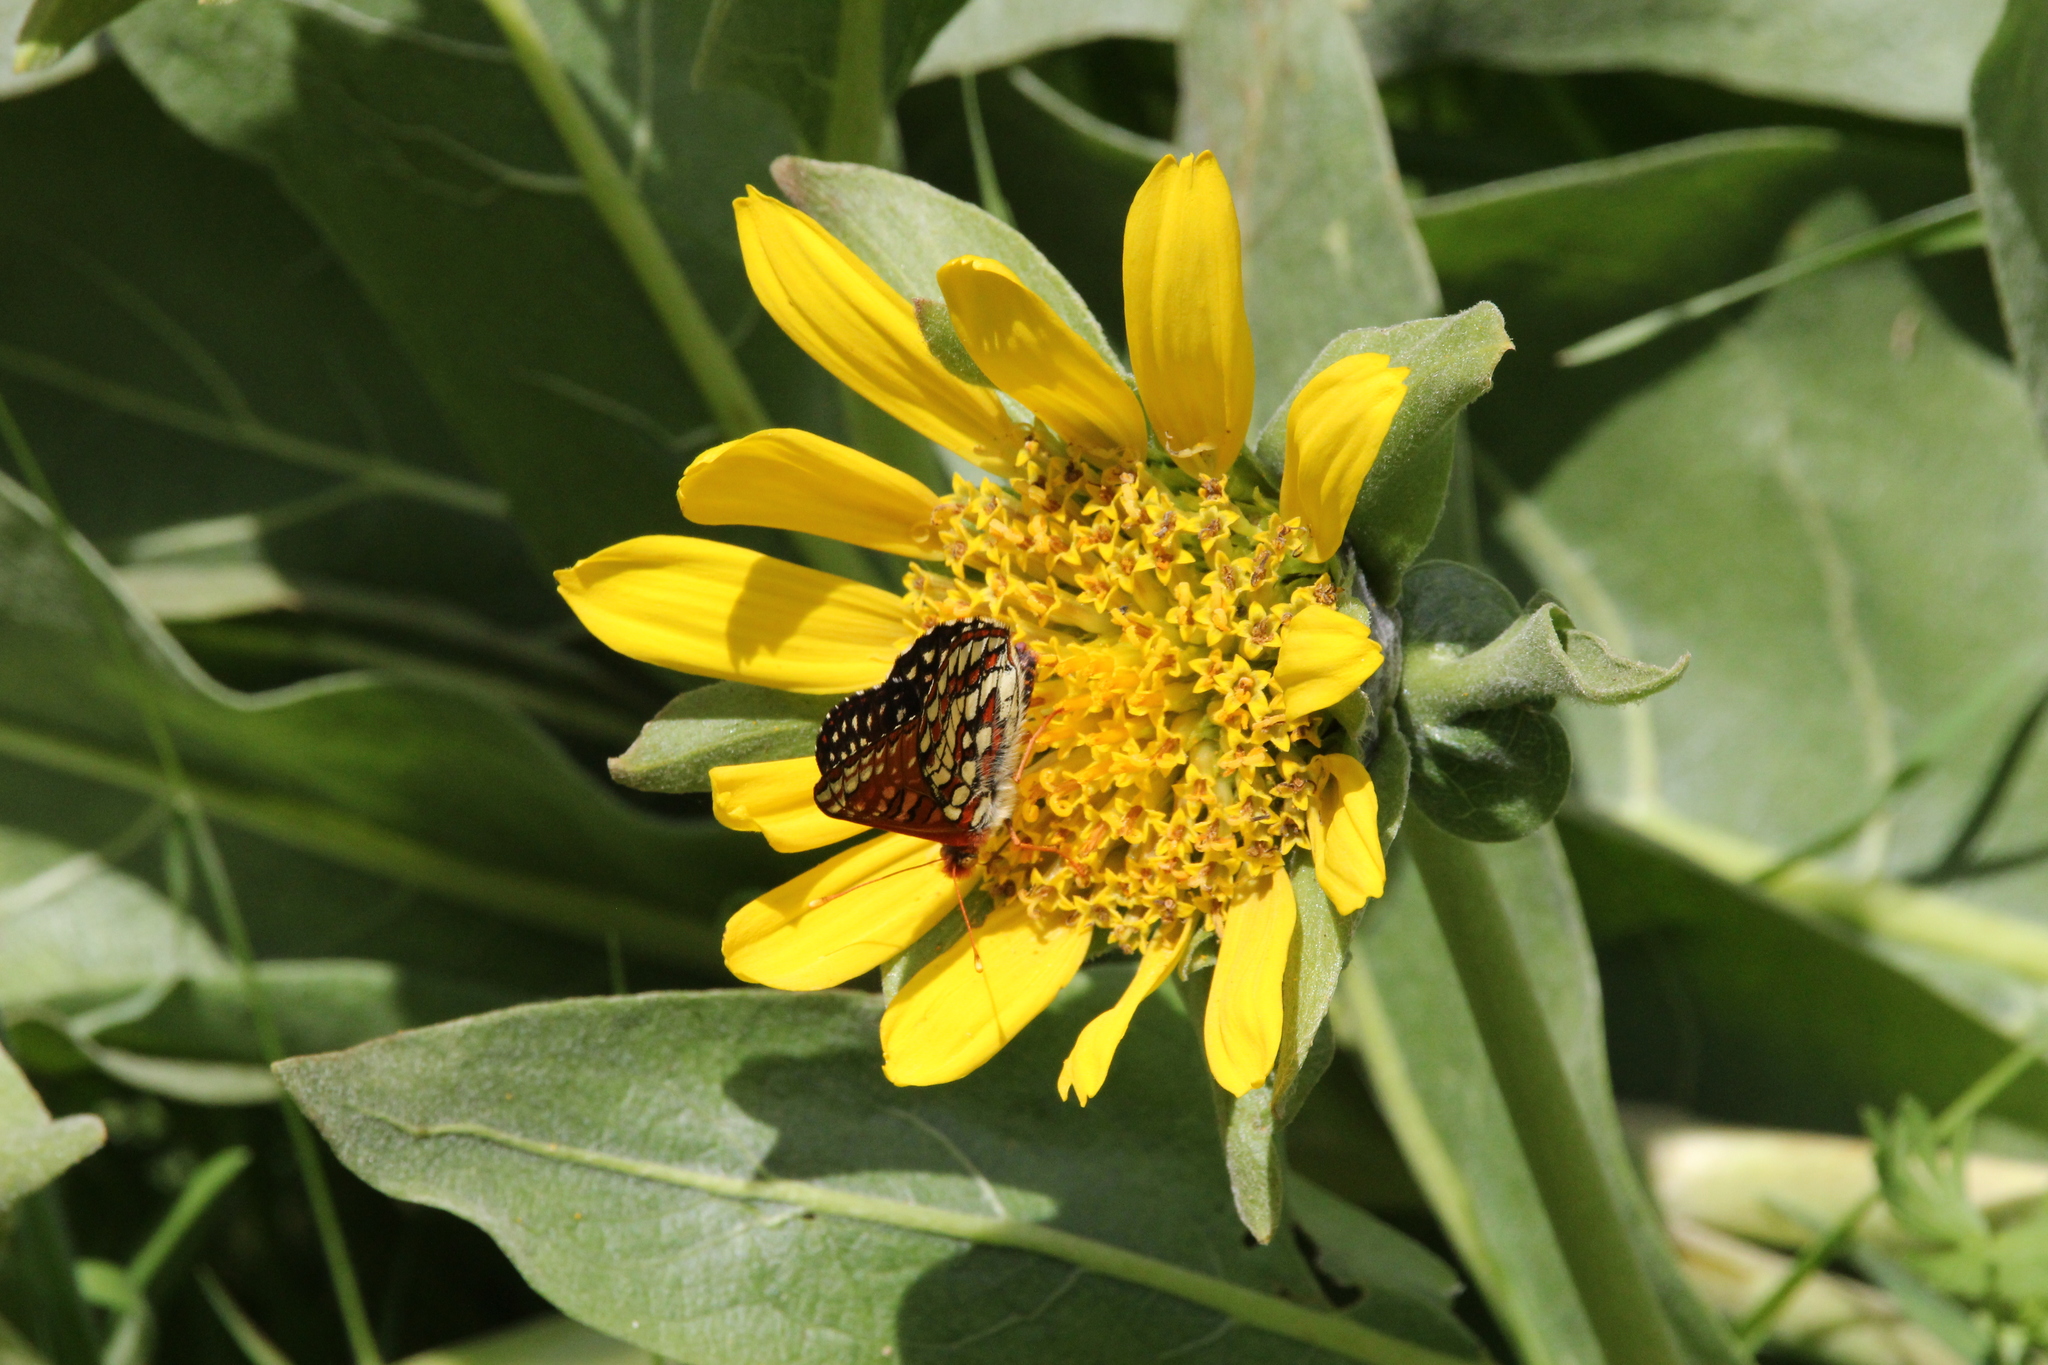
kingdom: Animalia
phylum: Arthropoda
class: Insecta
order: Lepidoptera
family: Nymphalidae
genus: Occidryas
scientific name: Occidryas chalcedona
